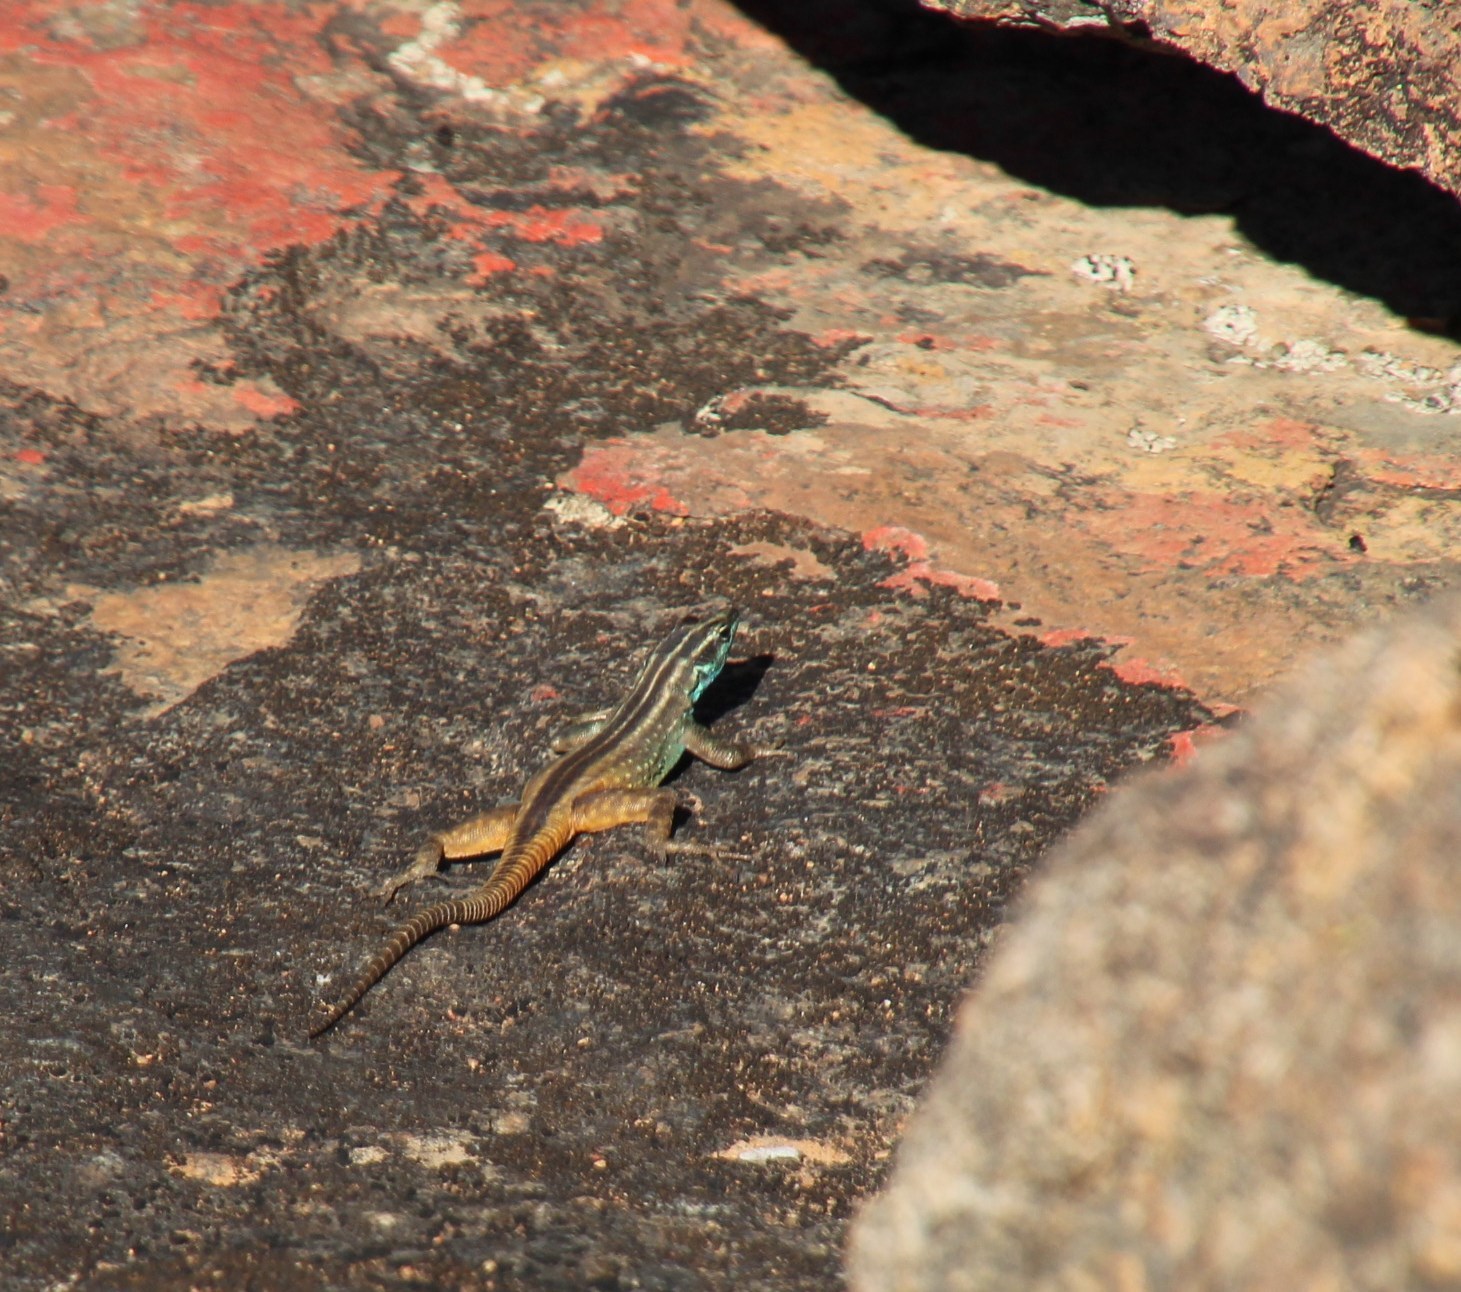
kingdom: Animalia
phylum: Chordata
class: Squamata
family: Cordylidae
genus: Platysaurus
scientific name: Platysaurus capensis
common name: Namaqua flat lizard
